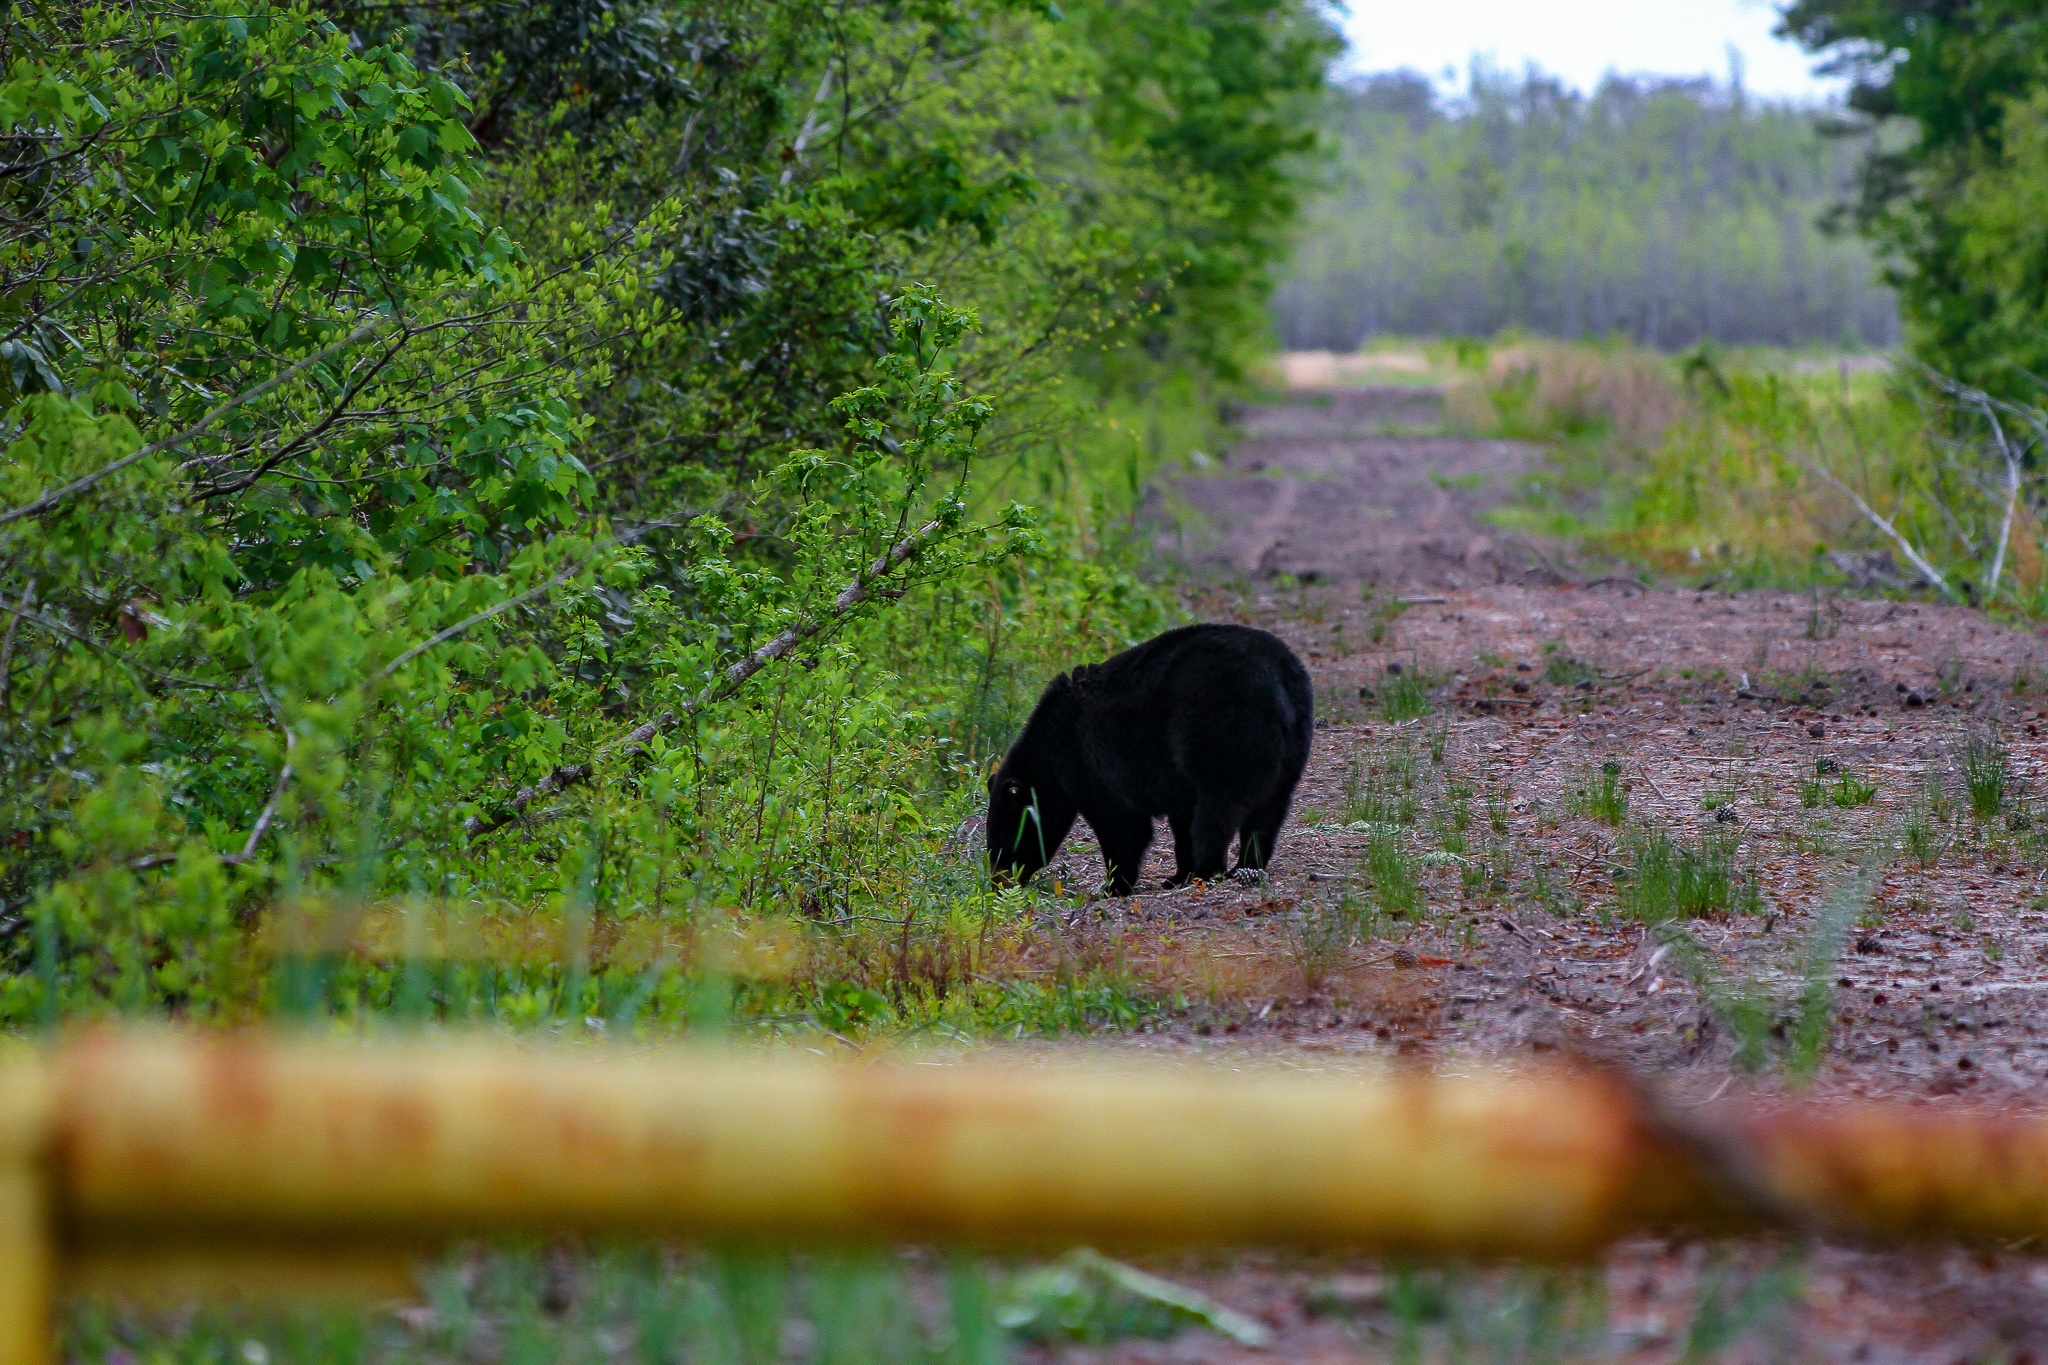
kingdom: Animalia
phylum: Chordata
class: Mammalia
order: Carnivora
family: Ursidae
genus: Ursus
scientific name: Ursus americanus
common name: American black bear
